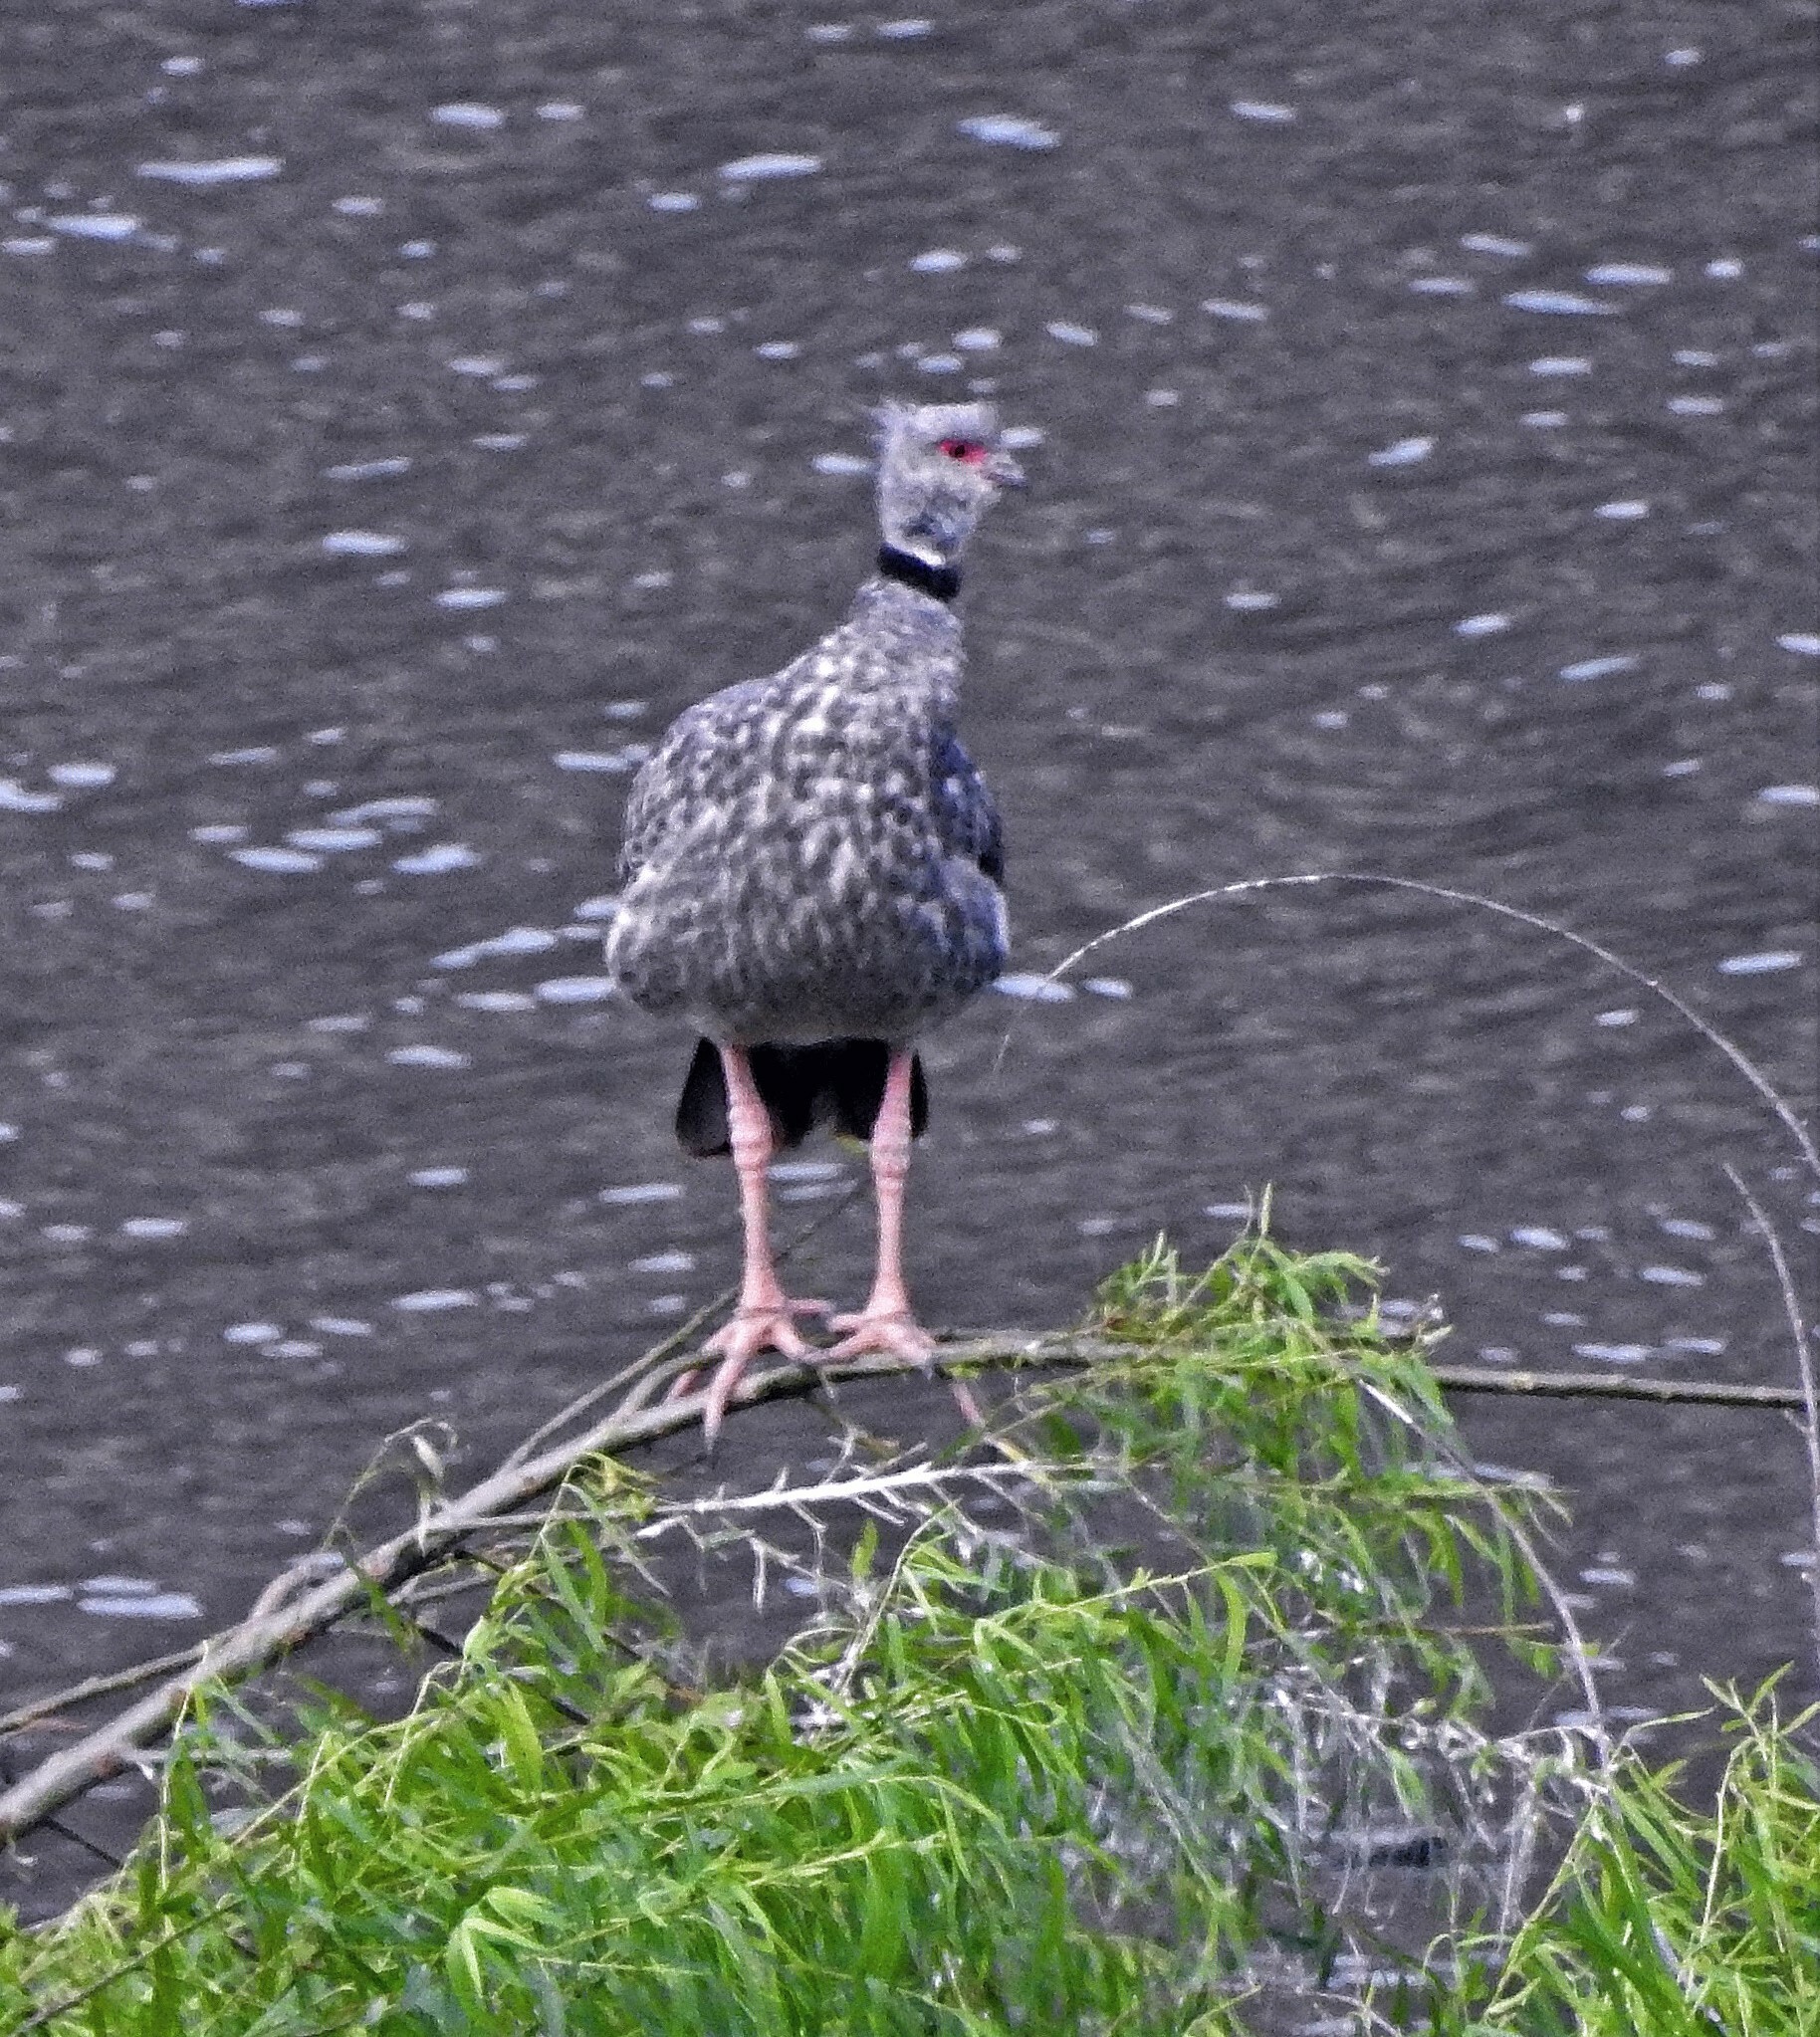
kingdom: Animalia
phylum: Chordata
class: Aves
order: Anseriformes
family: Anhimidae
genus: Chauna
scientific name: Chauna torquata
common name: Southern screamer
